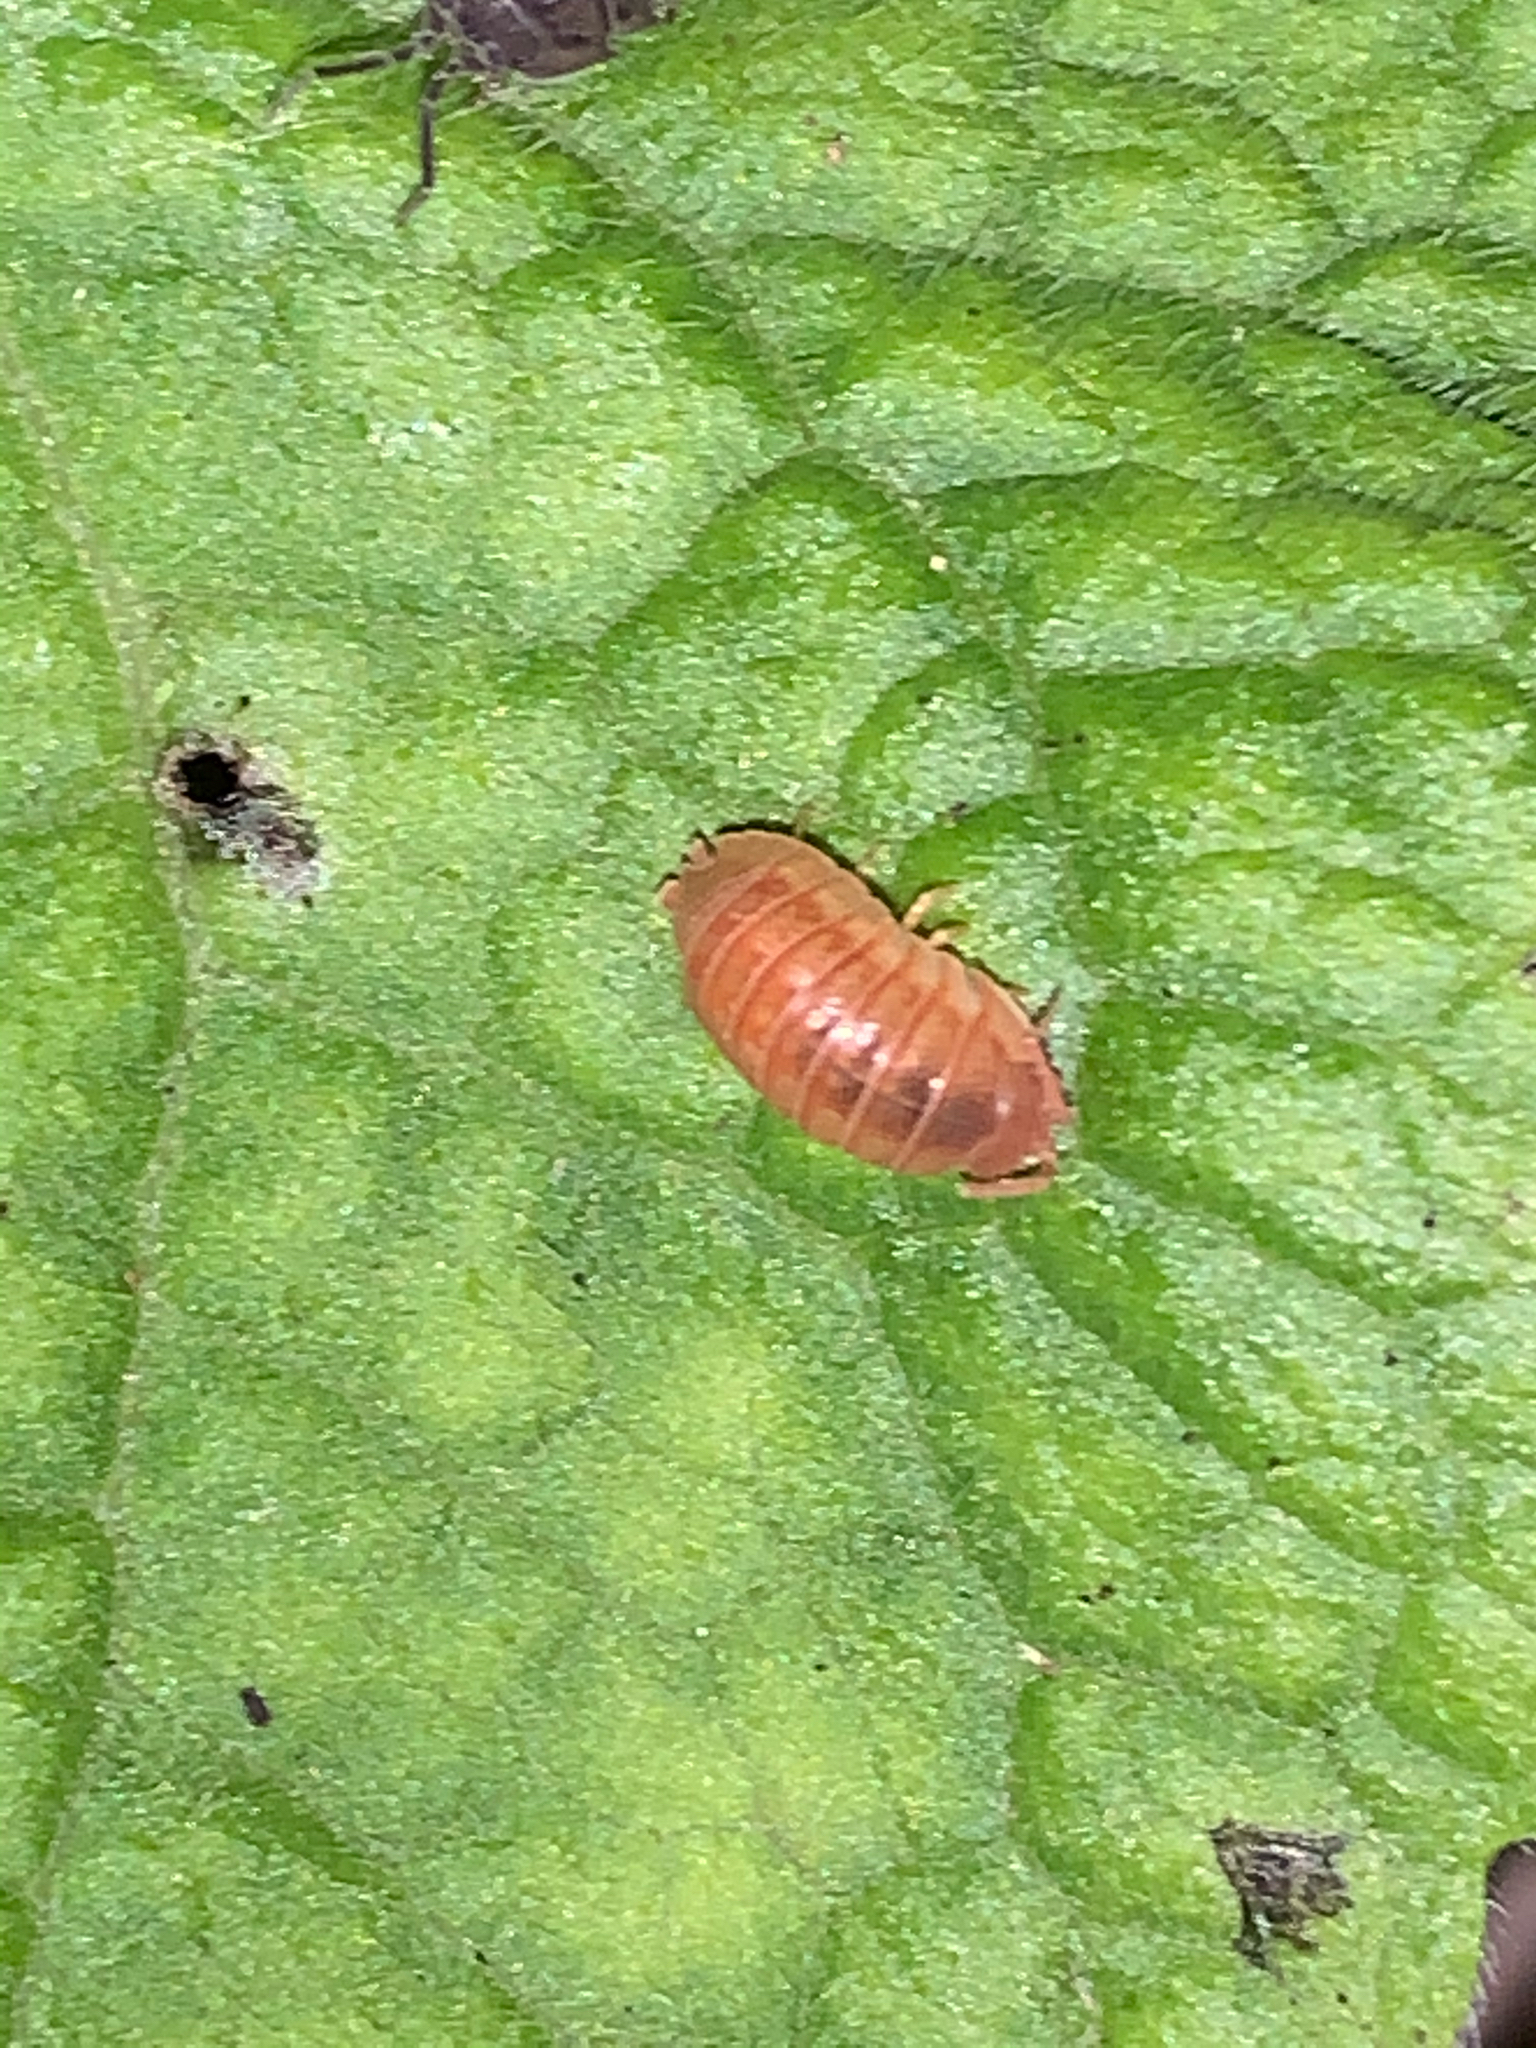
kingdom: Animalia
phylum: Arthropoda
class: Malacostraca
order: Isopoda
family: Armadillidiidae
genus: Armadillidium
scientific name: Armadillidium nasatum
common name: Isopod
